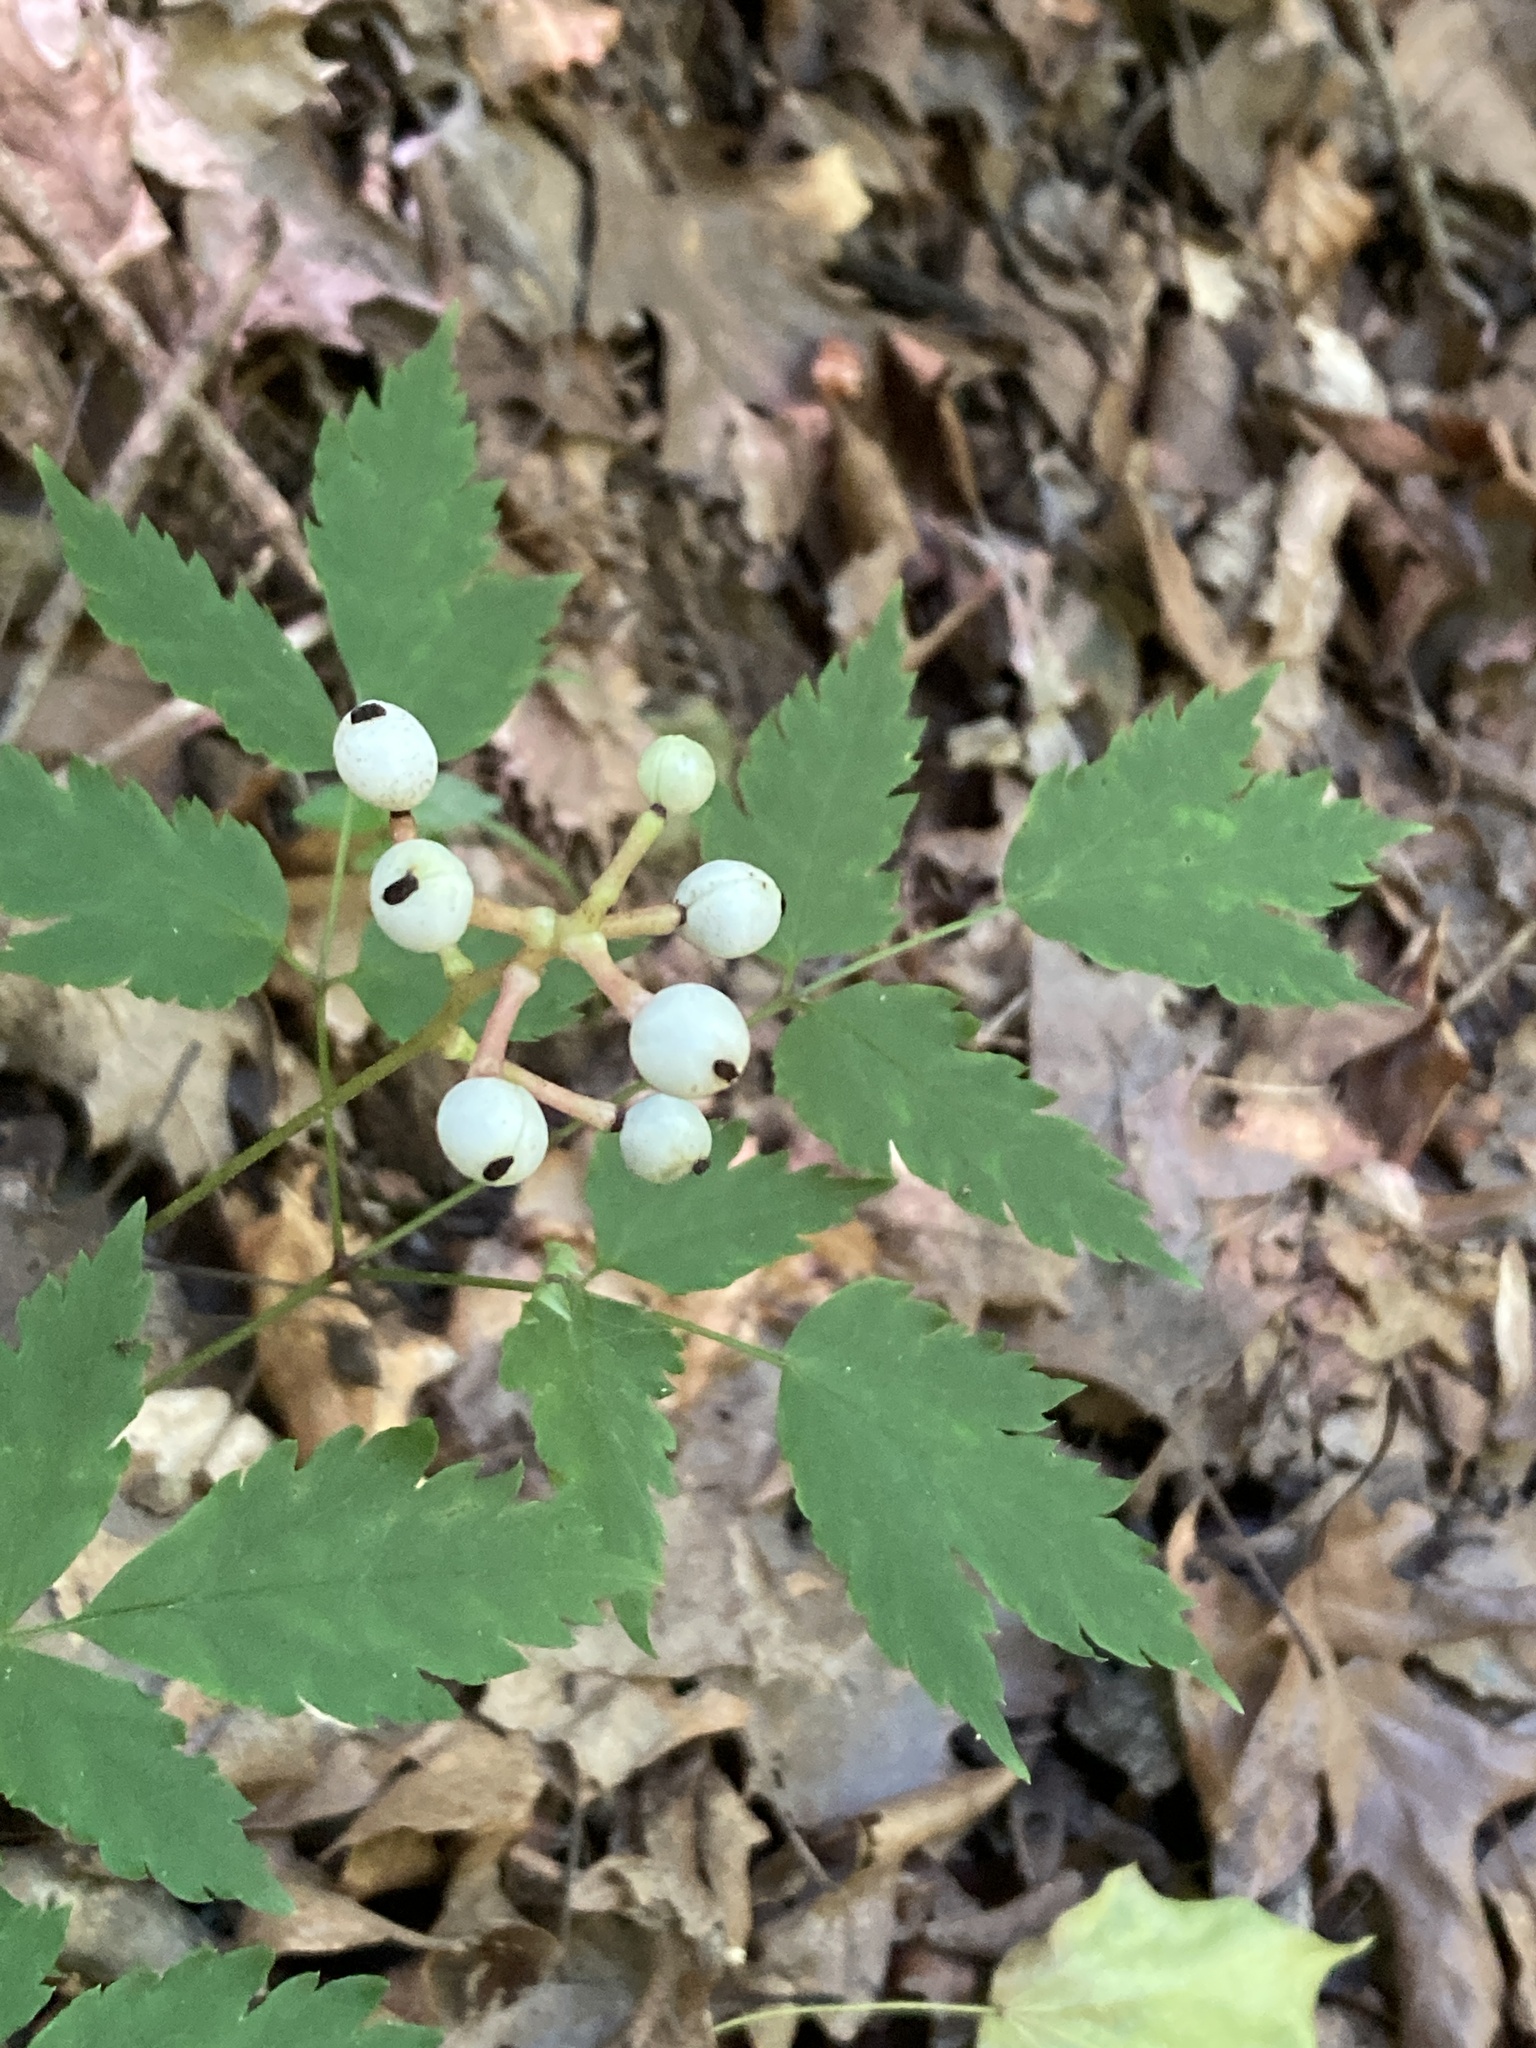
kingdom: Plantae
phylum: Tracheophyta
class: Magnoliopsida
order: Ranunculales
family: Ranunculaceae
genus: Actaea
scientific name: Actaea pachypoda
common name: Doll's-eyes
